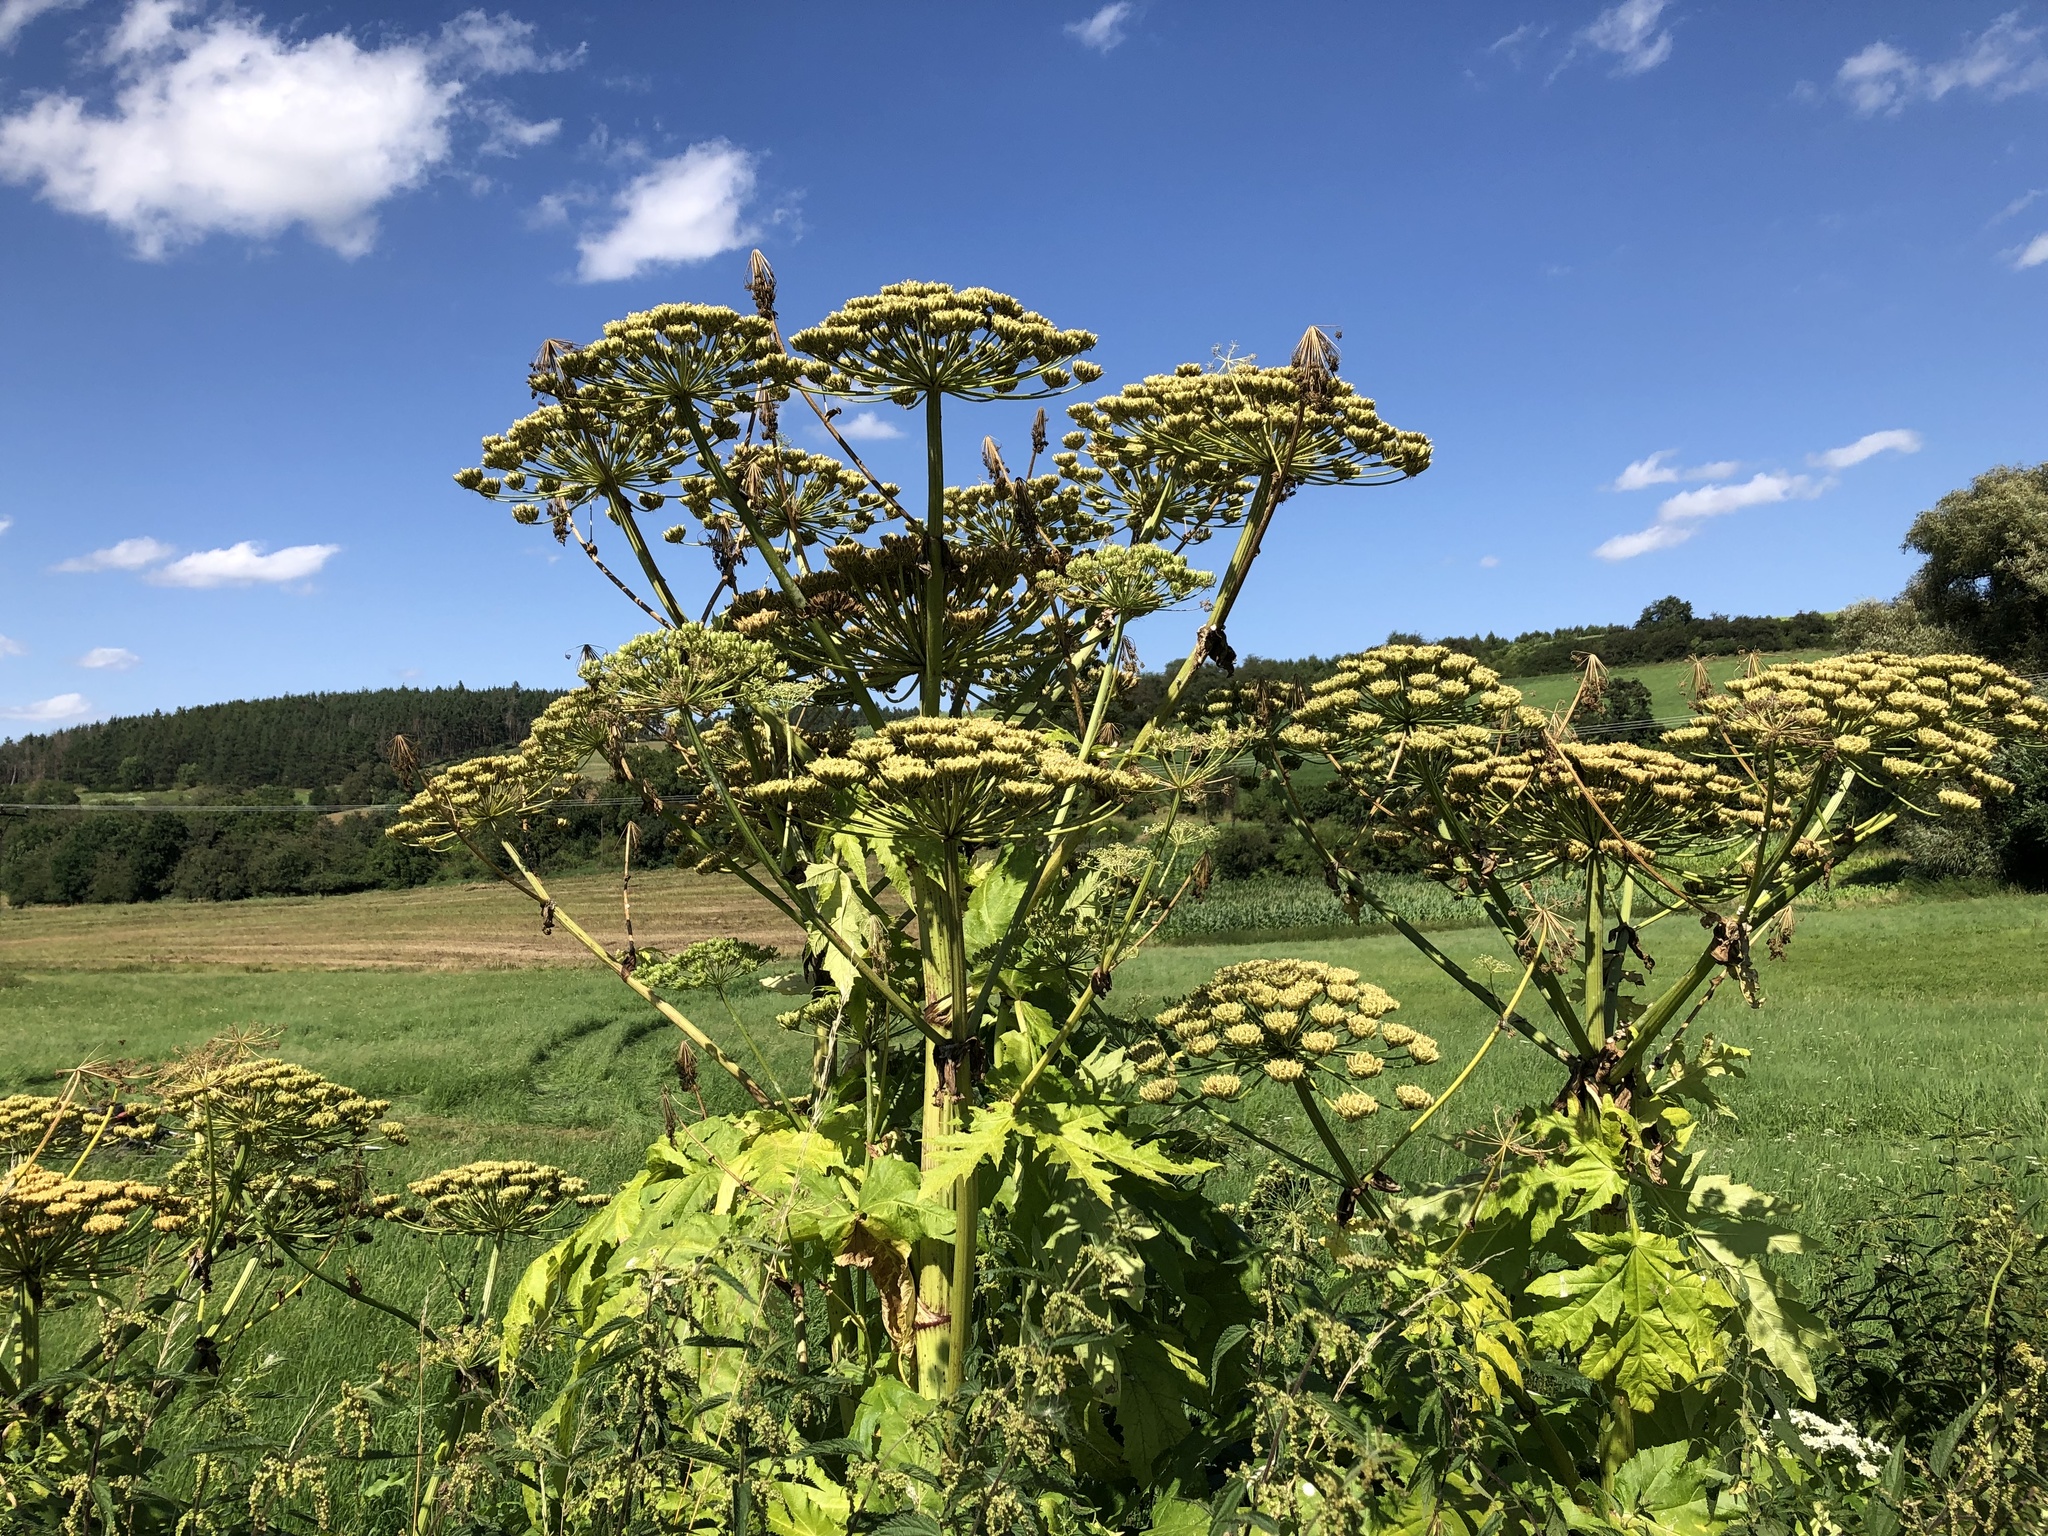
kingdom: Plantae
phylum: Tracheophyta
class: Magnoliopsida
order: Apiales
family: Apiaceae
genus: Heracleum
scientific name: Heracleum mantegazzianum
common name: Giant hogweed
